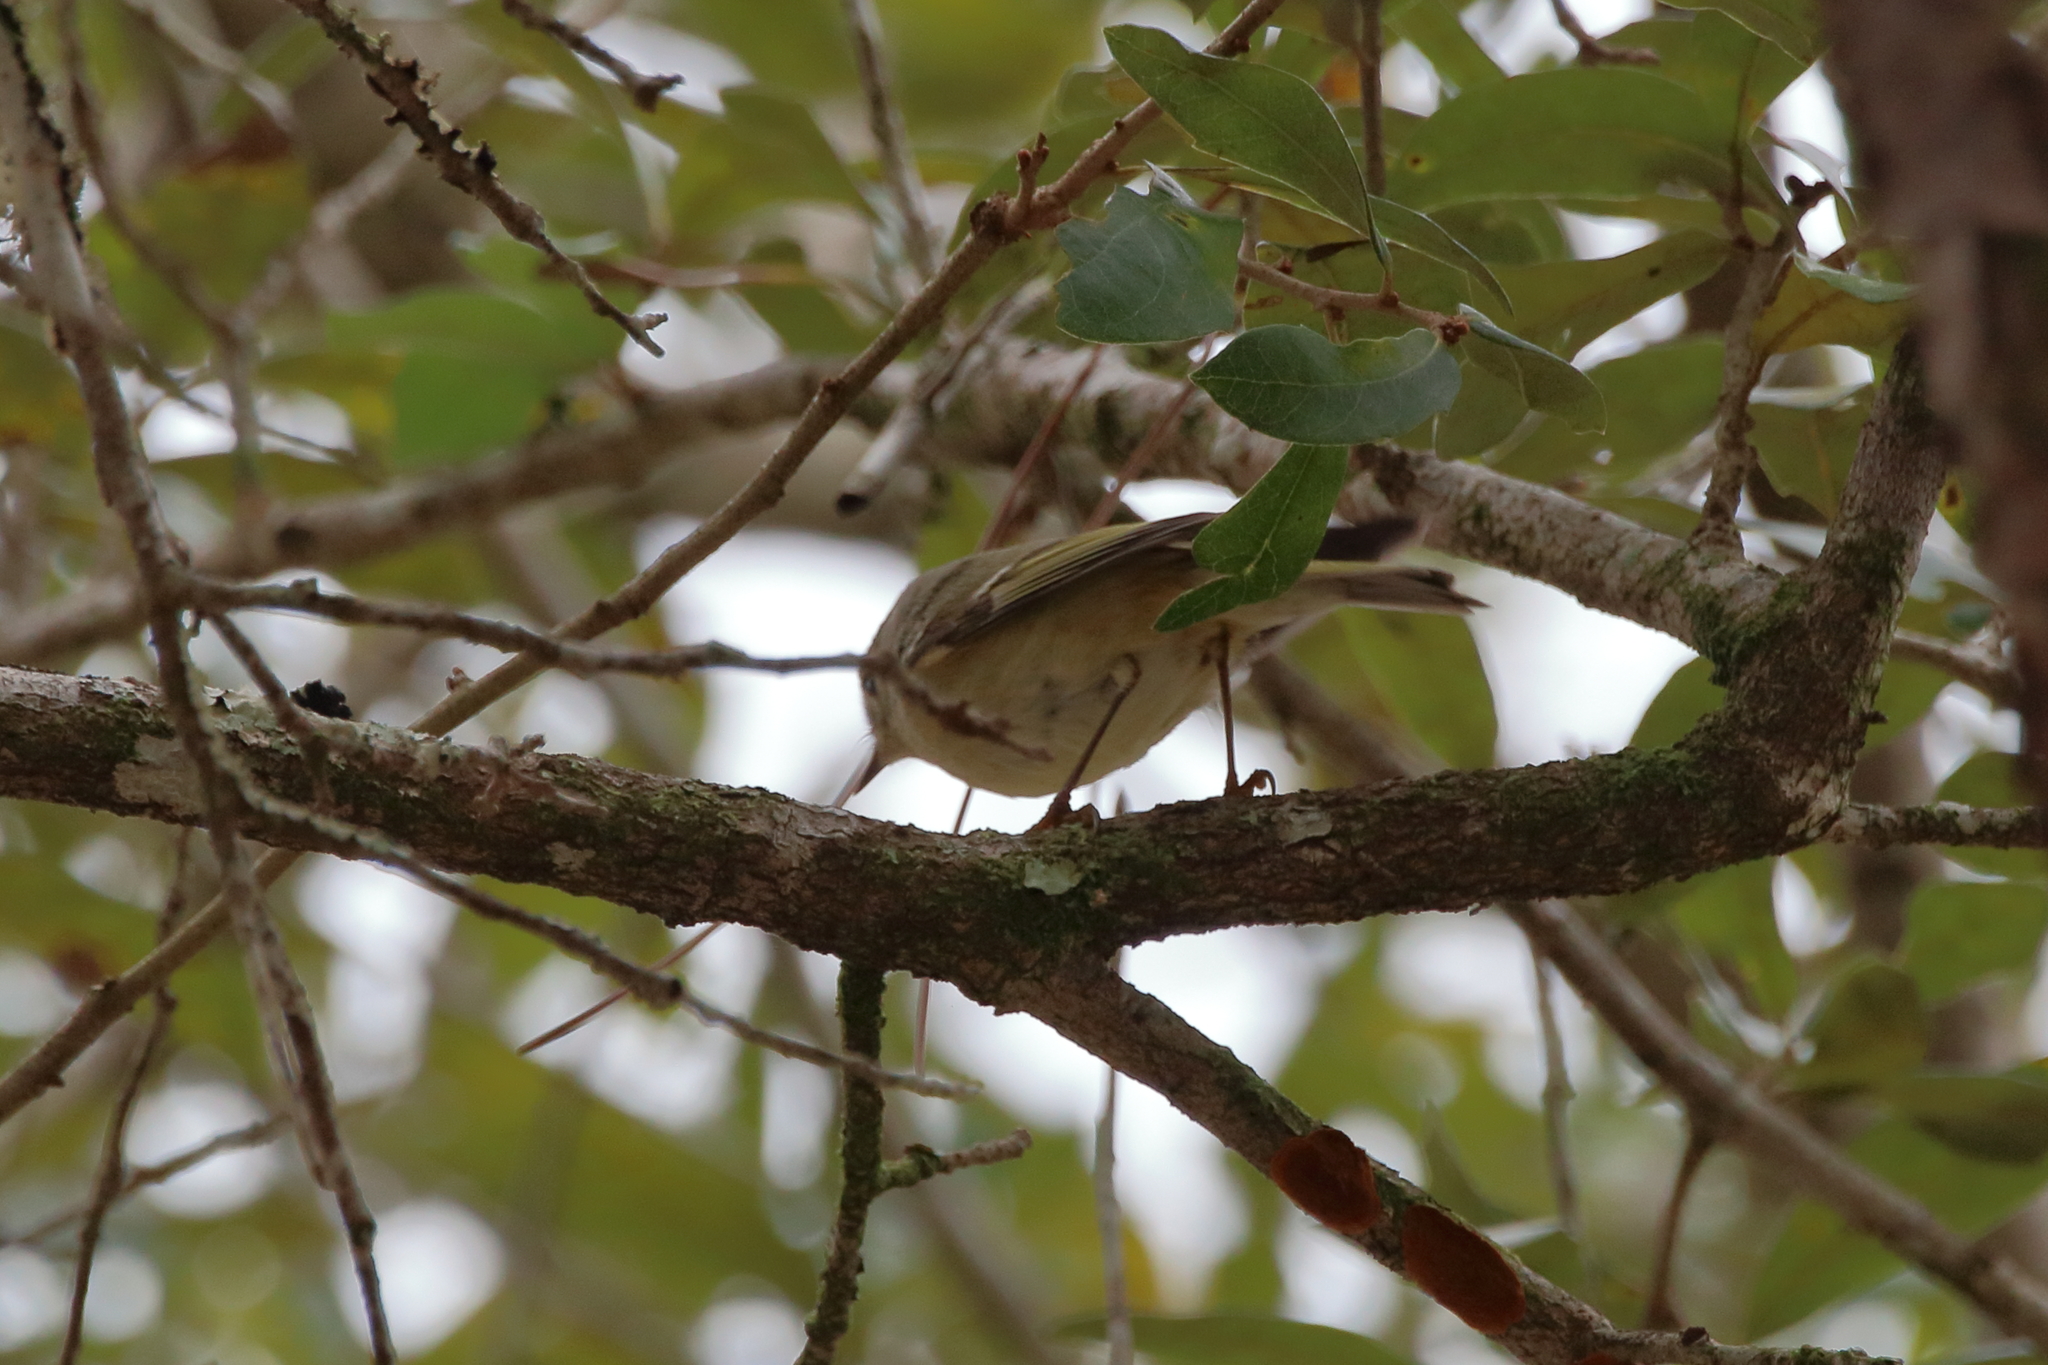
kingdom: Animalia
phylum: Chordata
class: Aves
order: Passeriformes
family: Regulidae
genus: Regulus
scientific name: Regulus calendula
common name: Ruby-crowned kinglet
